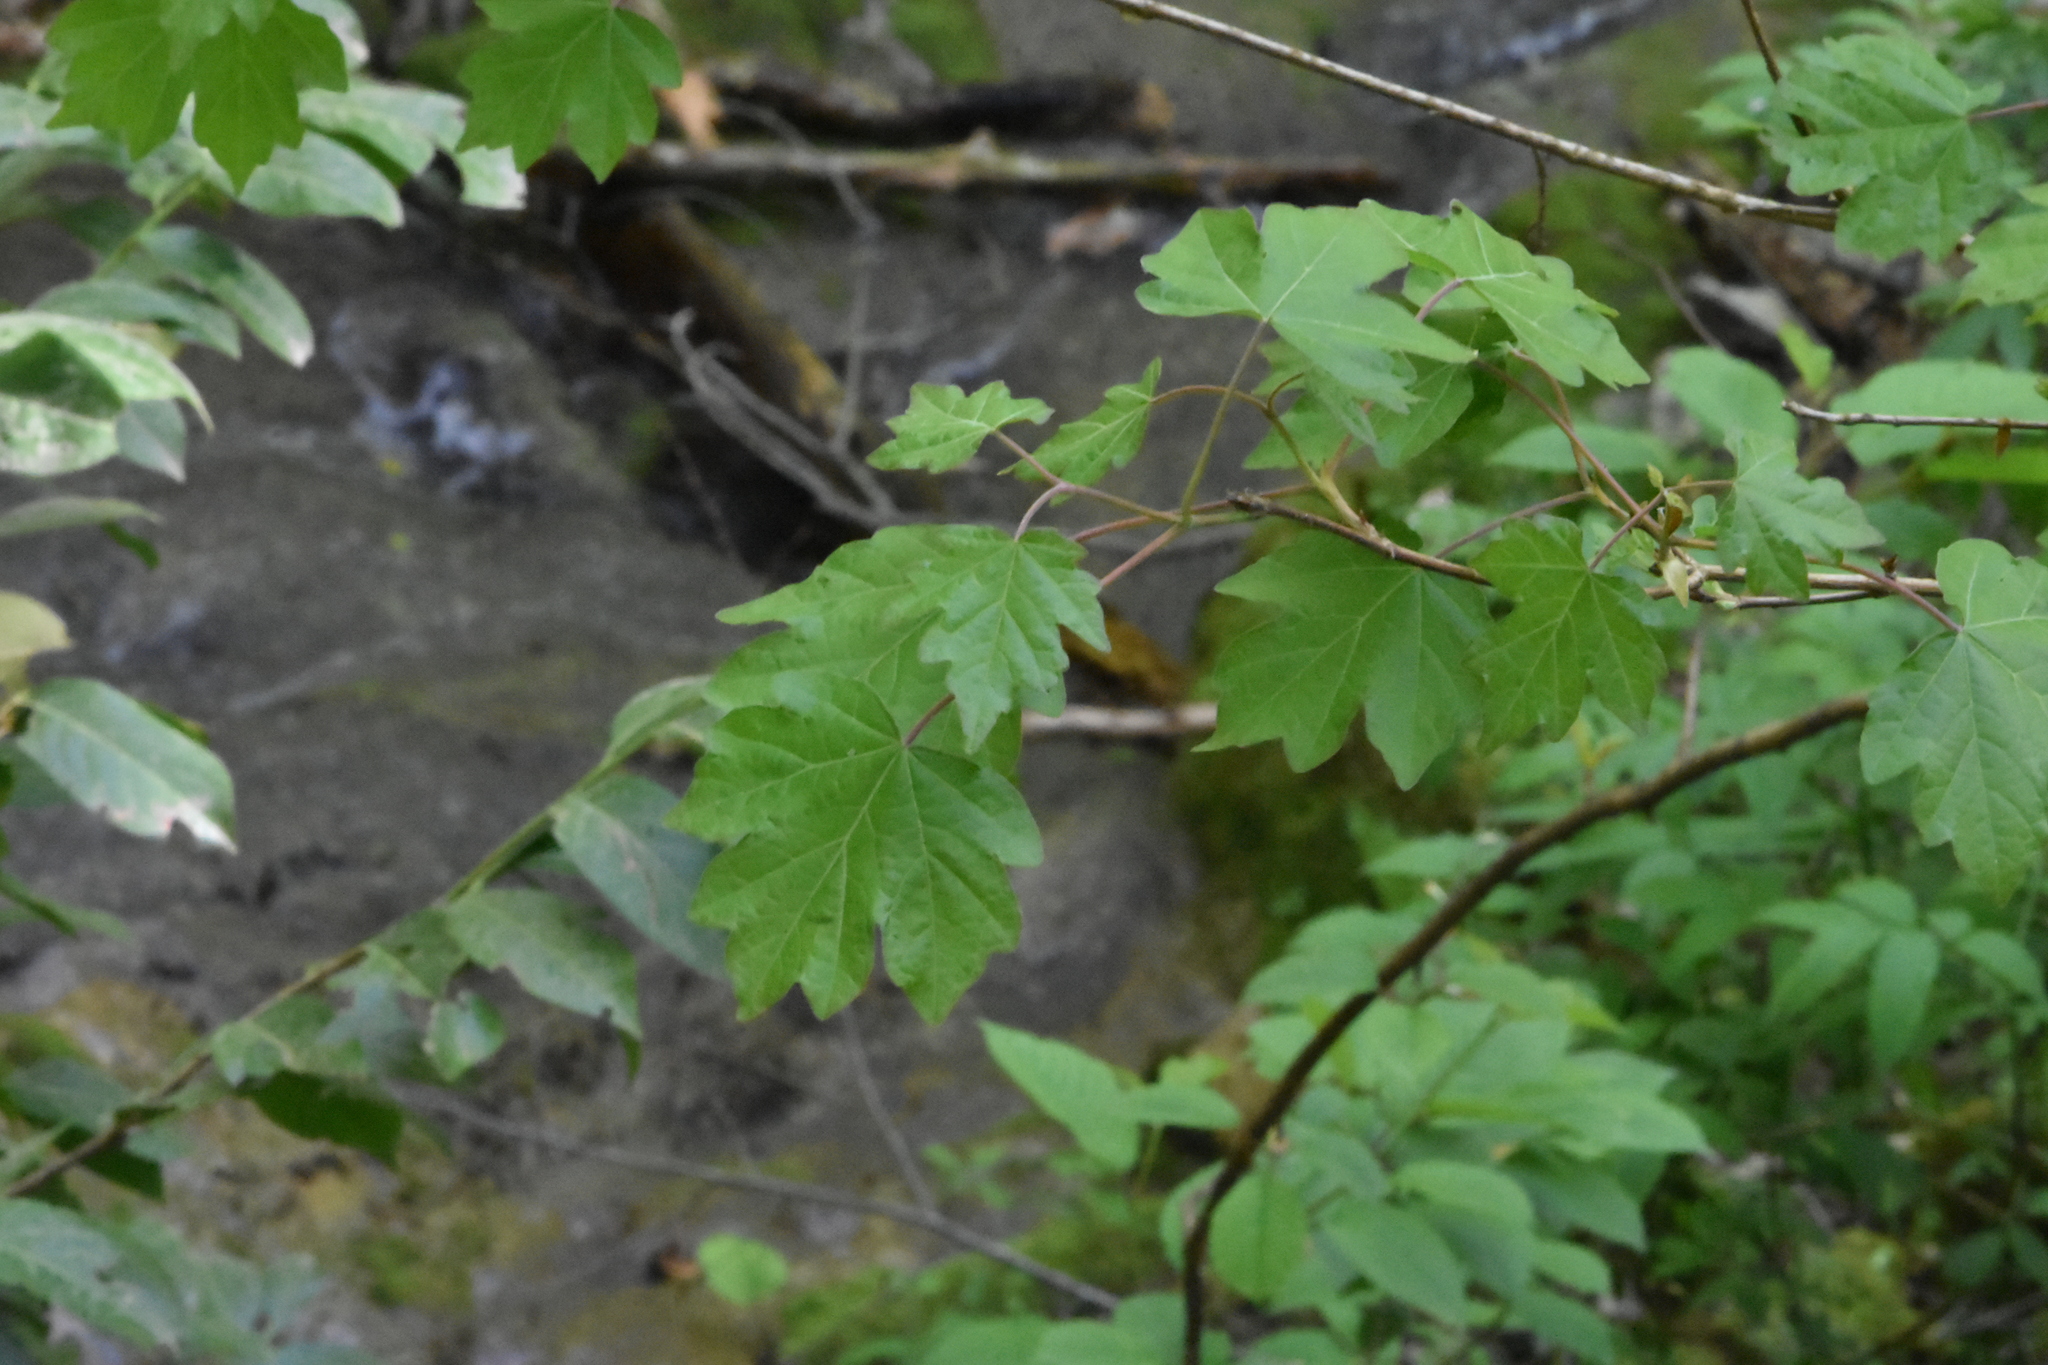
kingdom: Plantae
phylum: Tracheophyta
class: Magnoliopsida
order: Sapindales
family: Sapindaceae
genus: Acer
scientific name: Acer campestre
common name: Field maple
